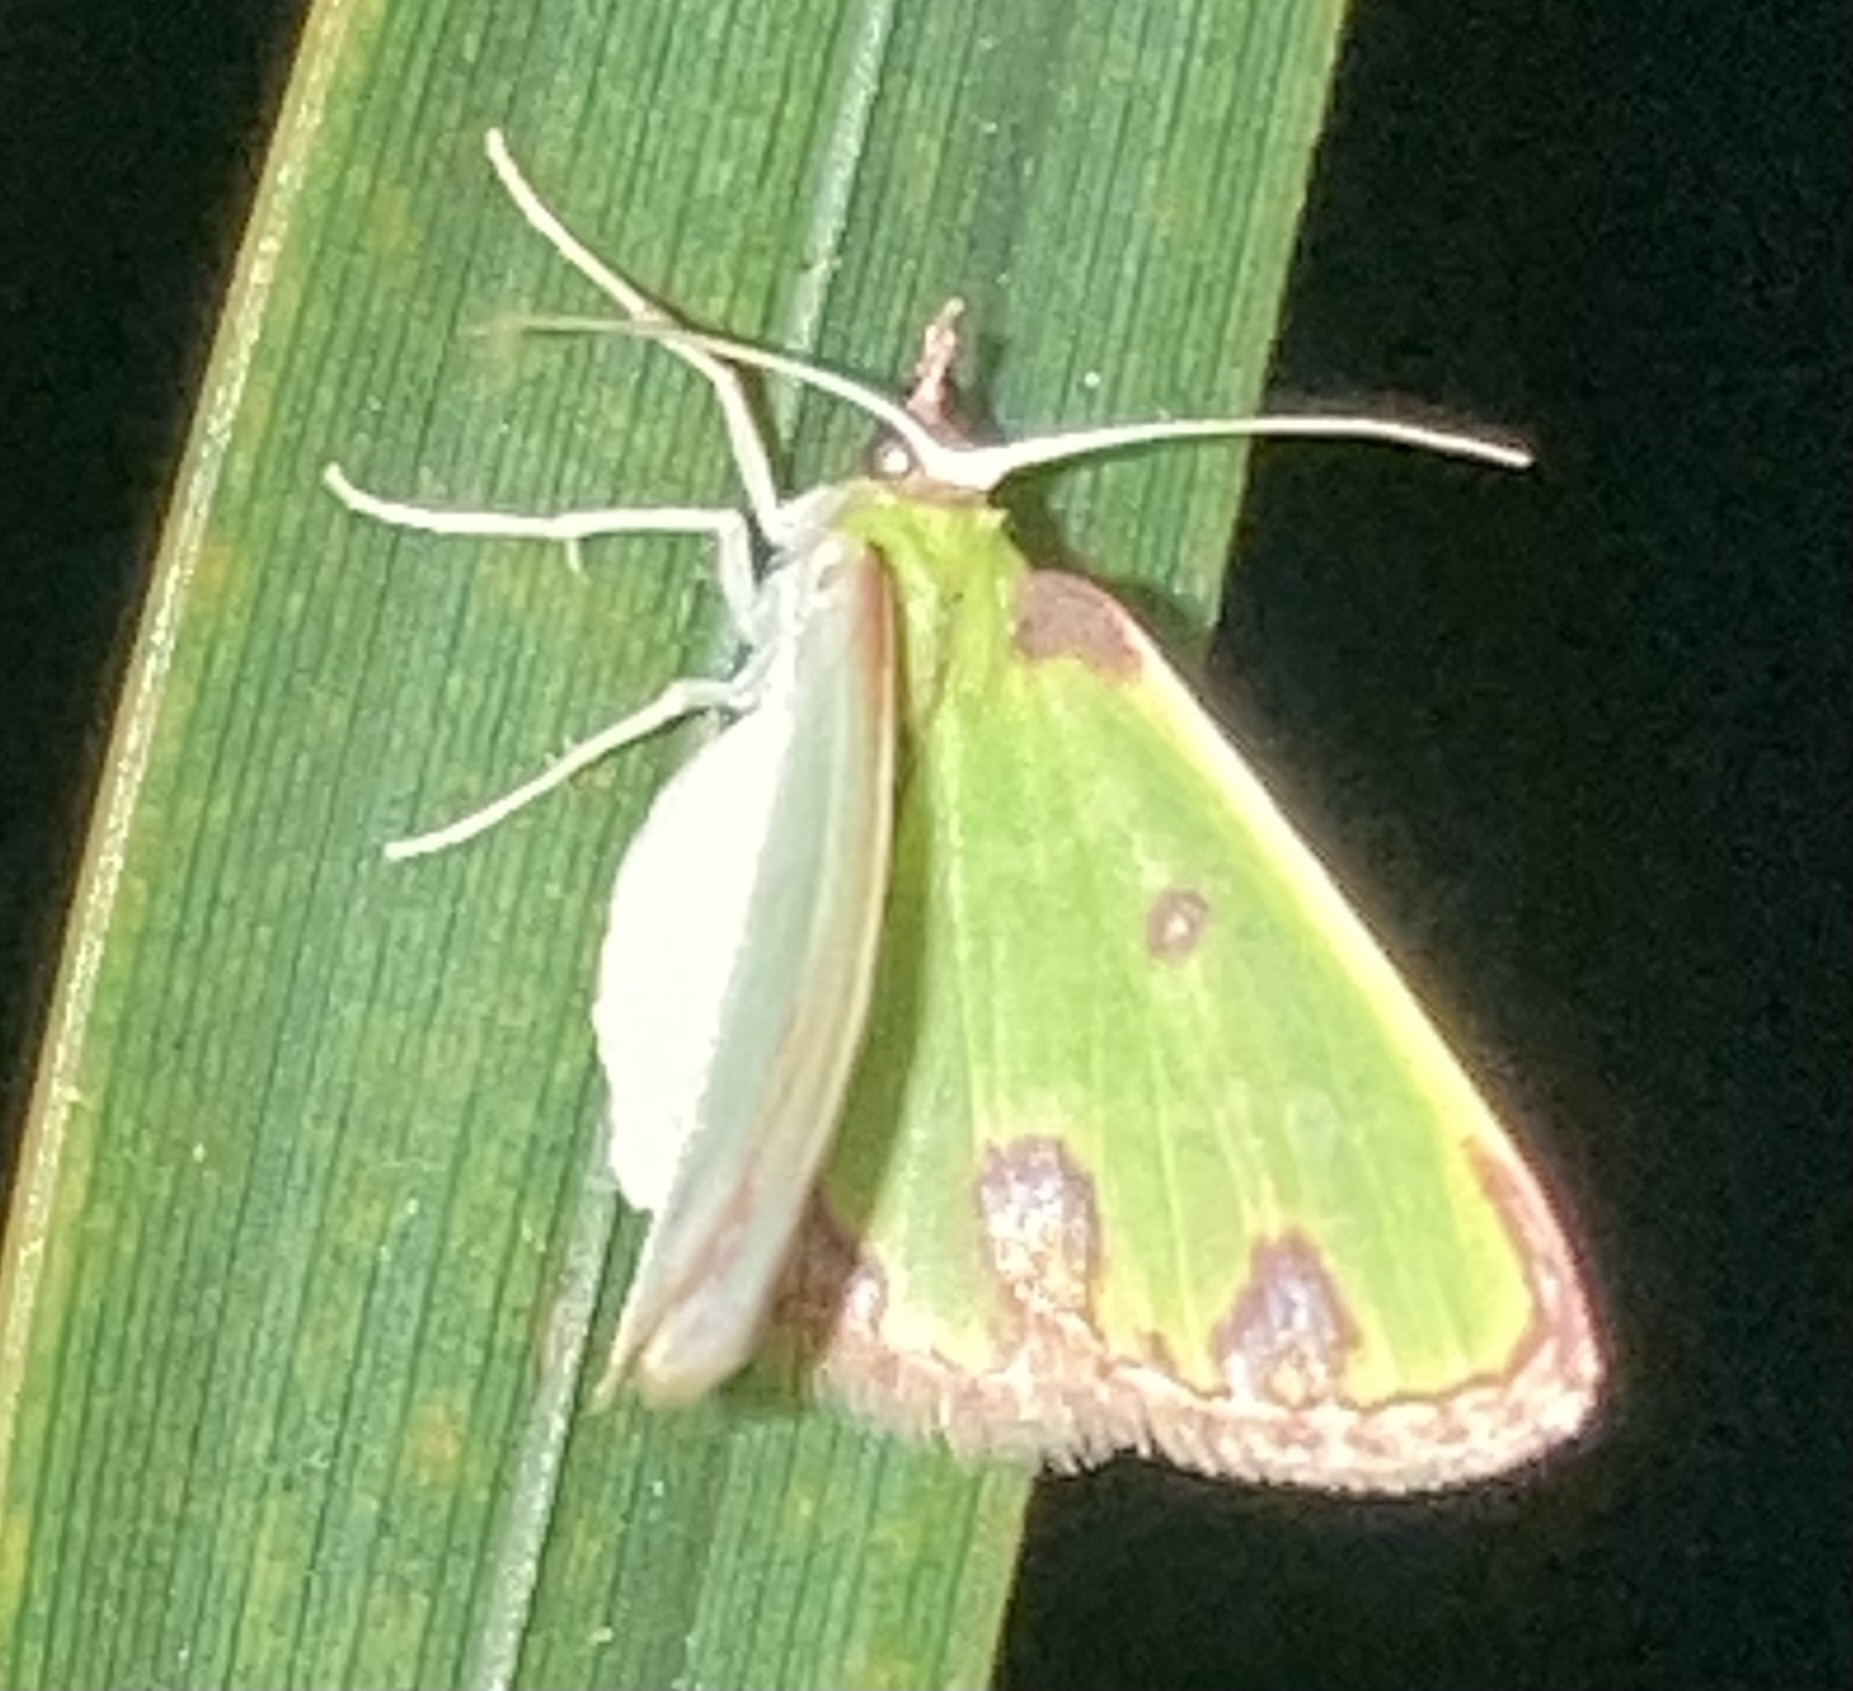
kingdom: Animalia
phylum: Arthropoda
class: Insecta
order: Lepidoptera
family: Geometridae
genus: Synchlora
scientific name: Synchlora xysteraria
